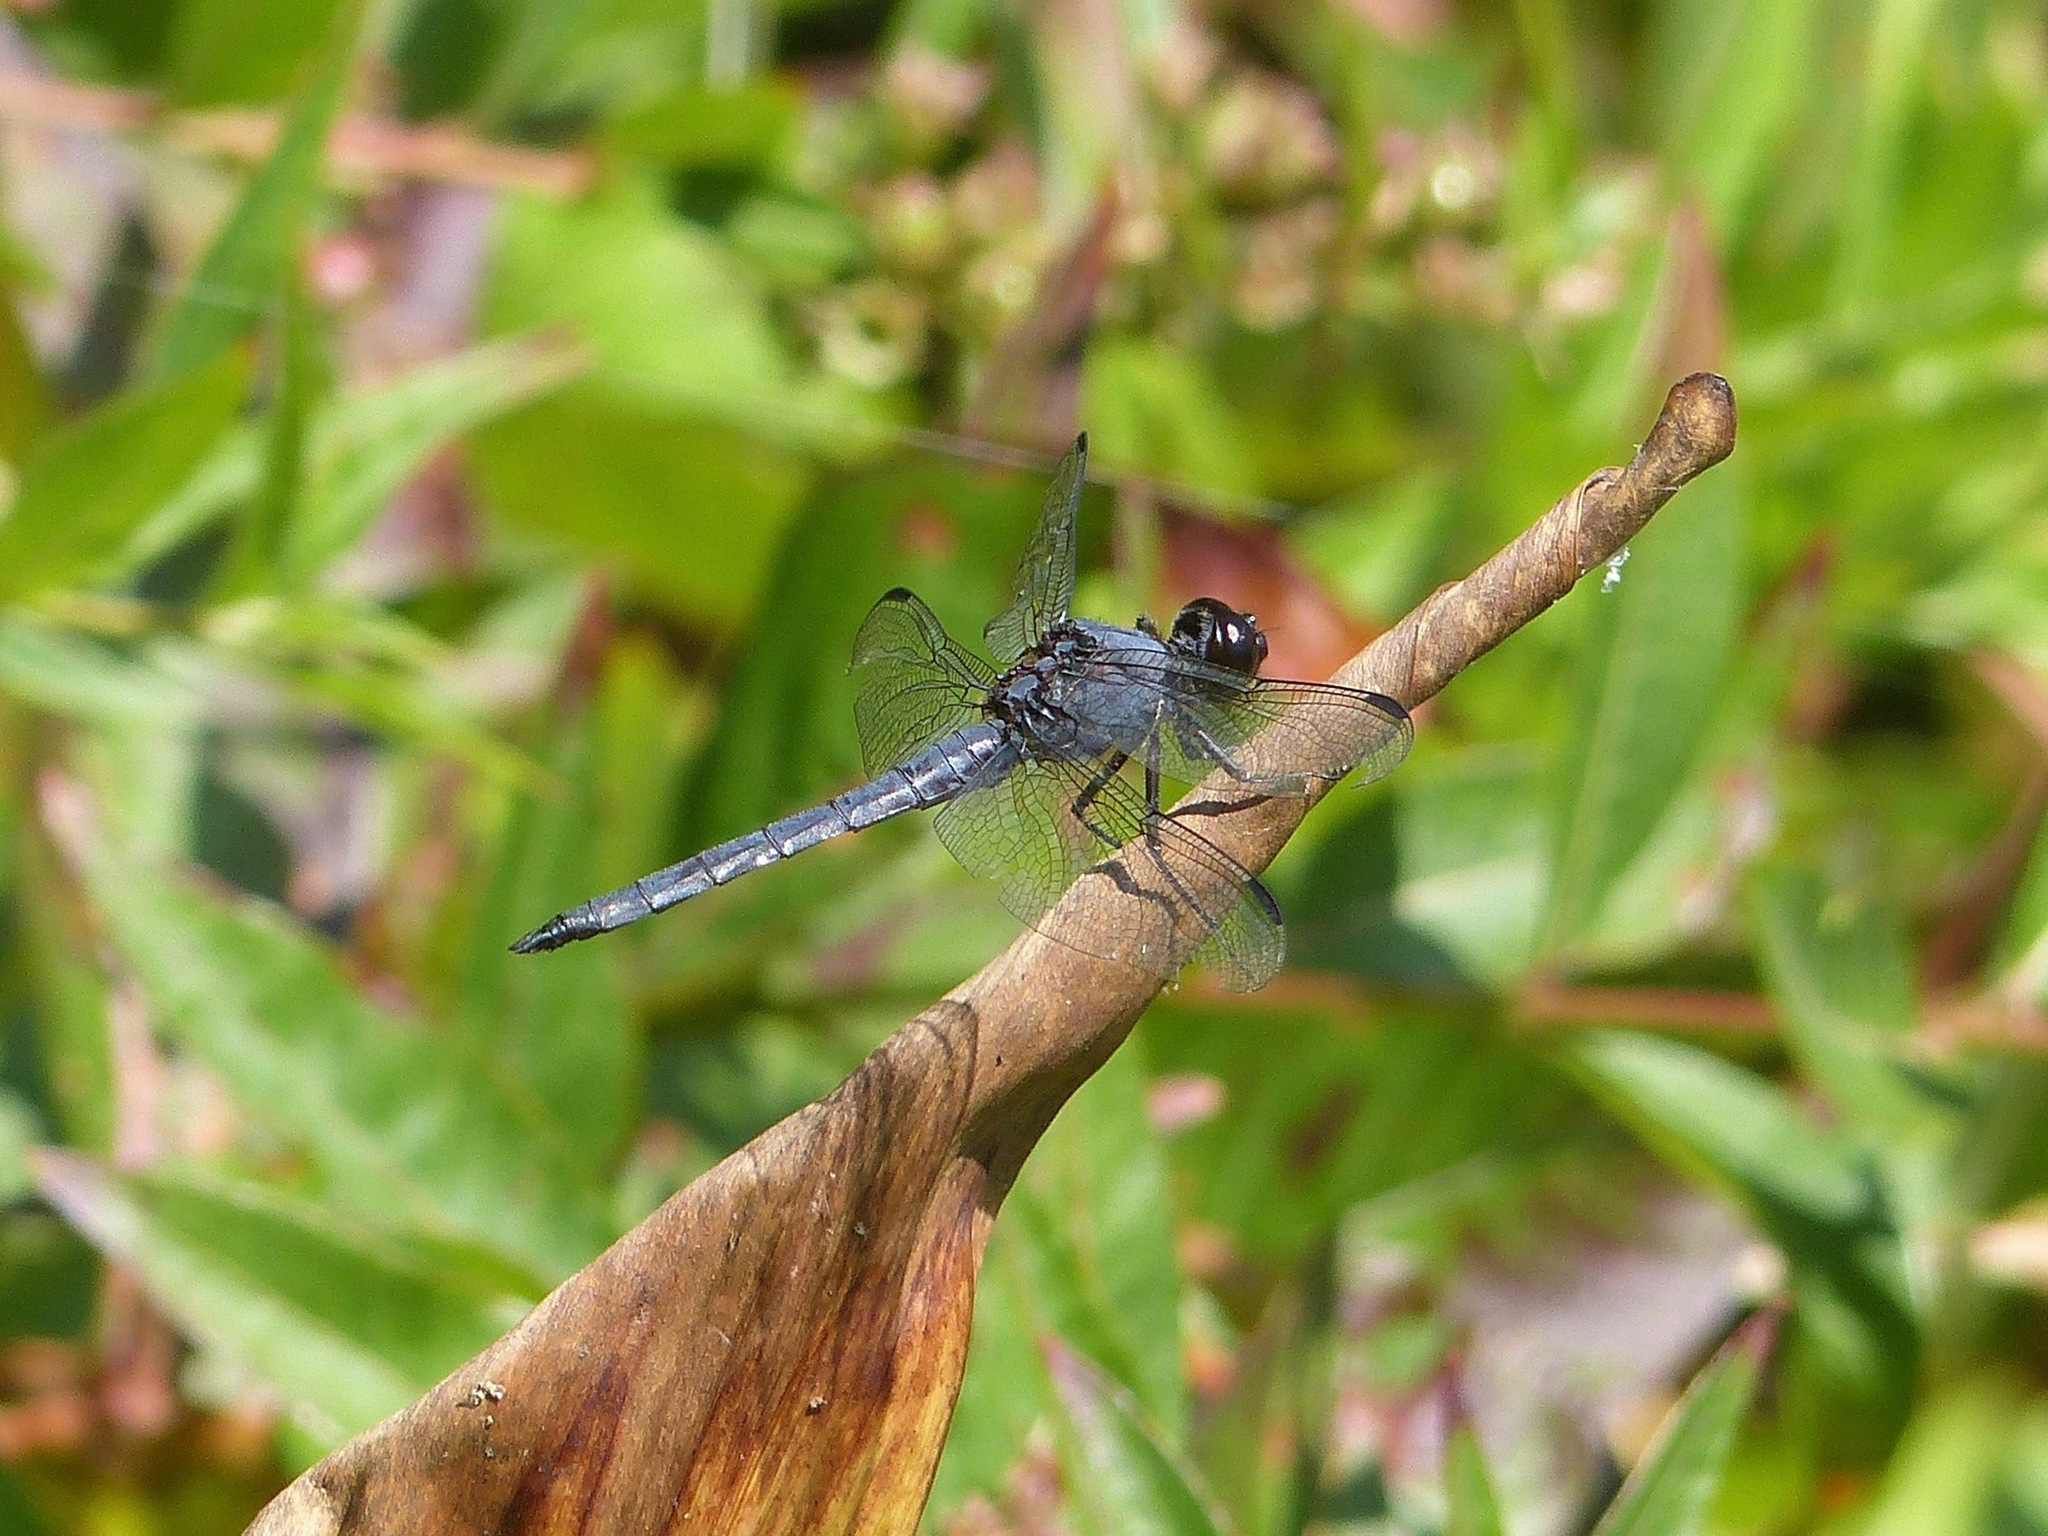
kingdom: Animalia
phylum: Arthropoda
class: Insecta
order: Odonata
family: Libellulidae
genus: Libellula
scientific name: Libellula incesta
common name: Slaty skimmer
